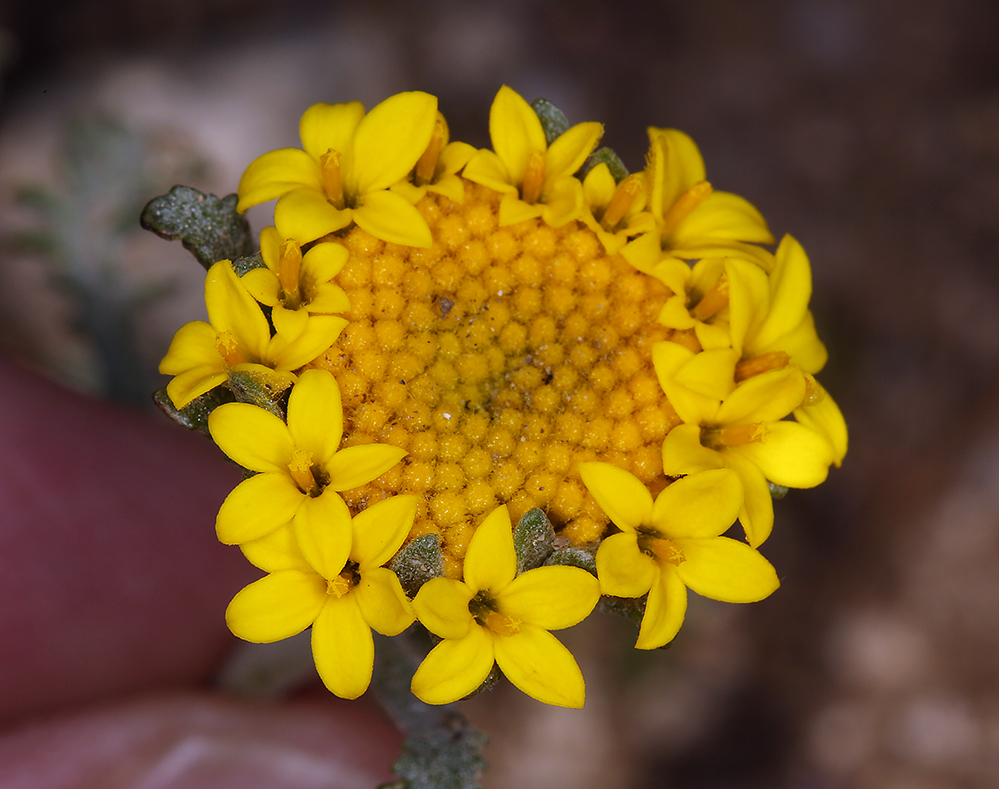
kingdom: Plantae
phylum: Tracheophyta
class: Magnoliopsida
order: Asterales
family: Asteraceae
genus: Chaenactis
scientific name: Chaenactis glabriuscula
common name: Yellow pincushion
